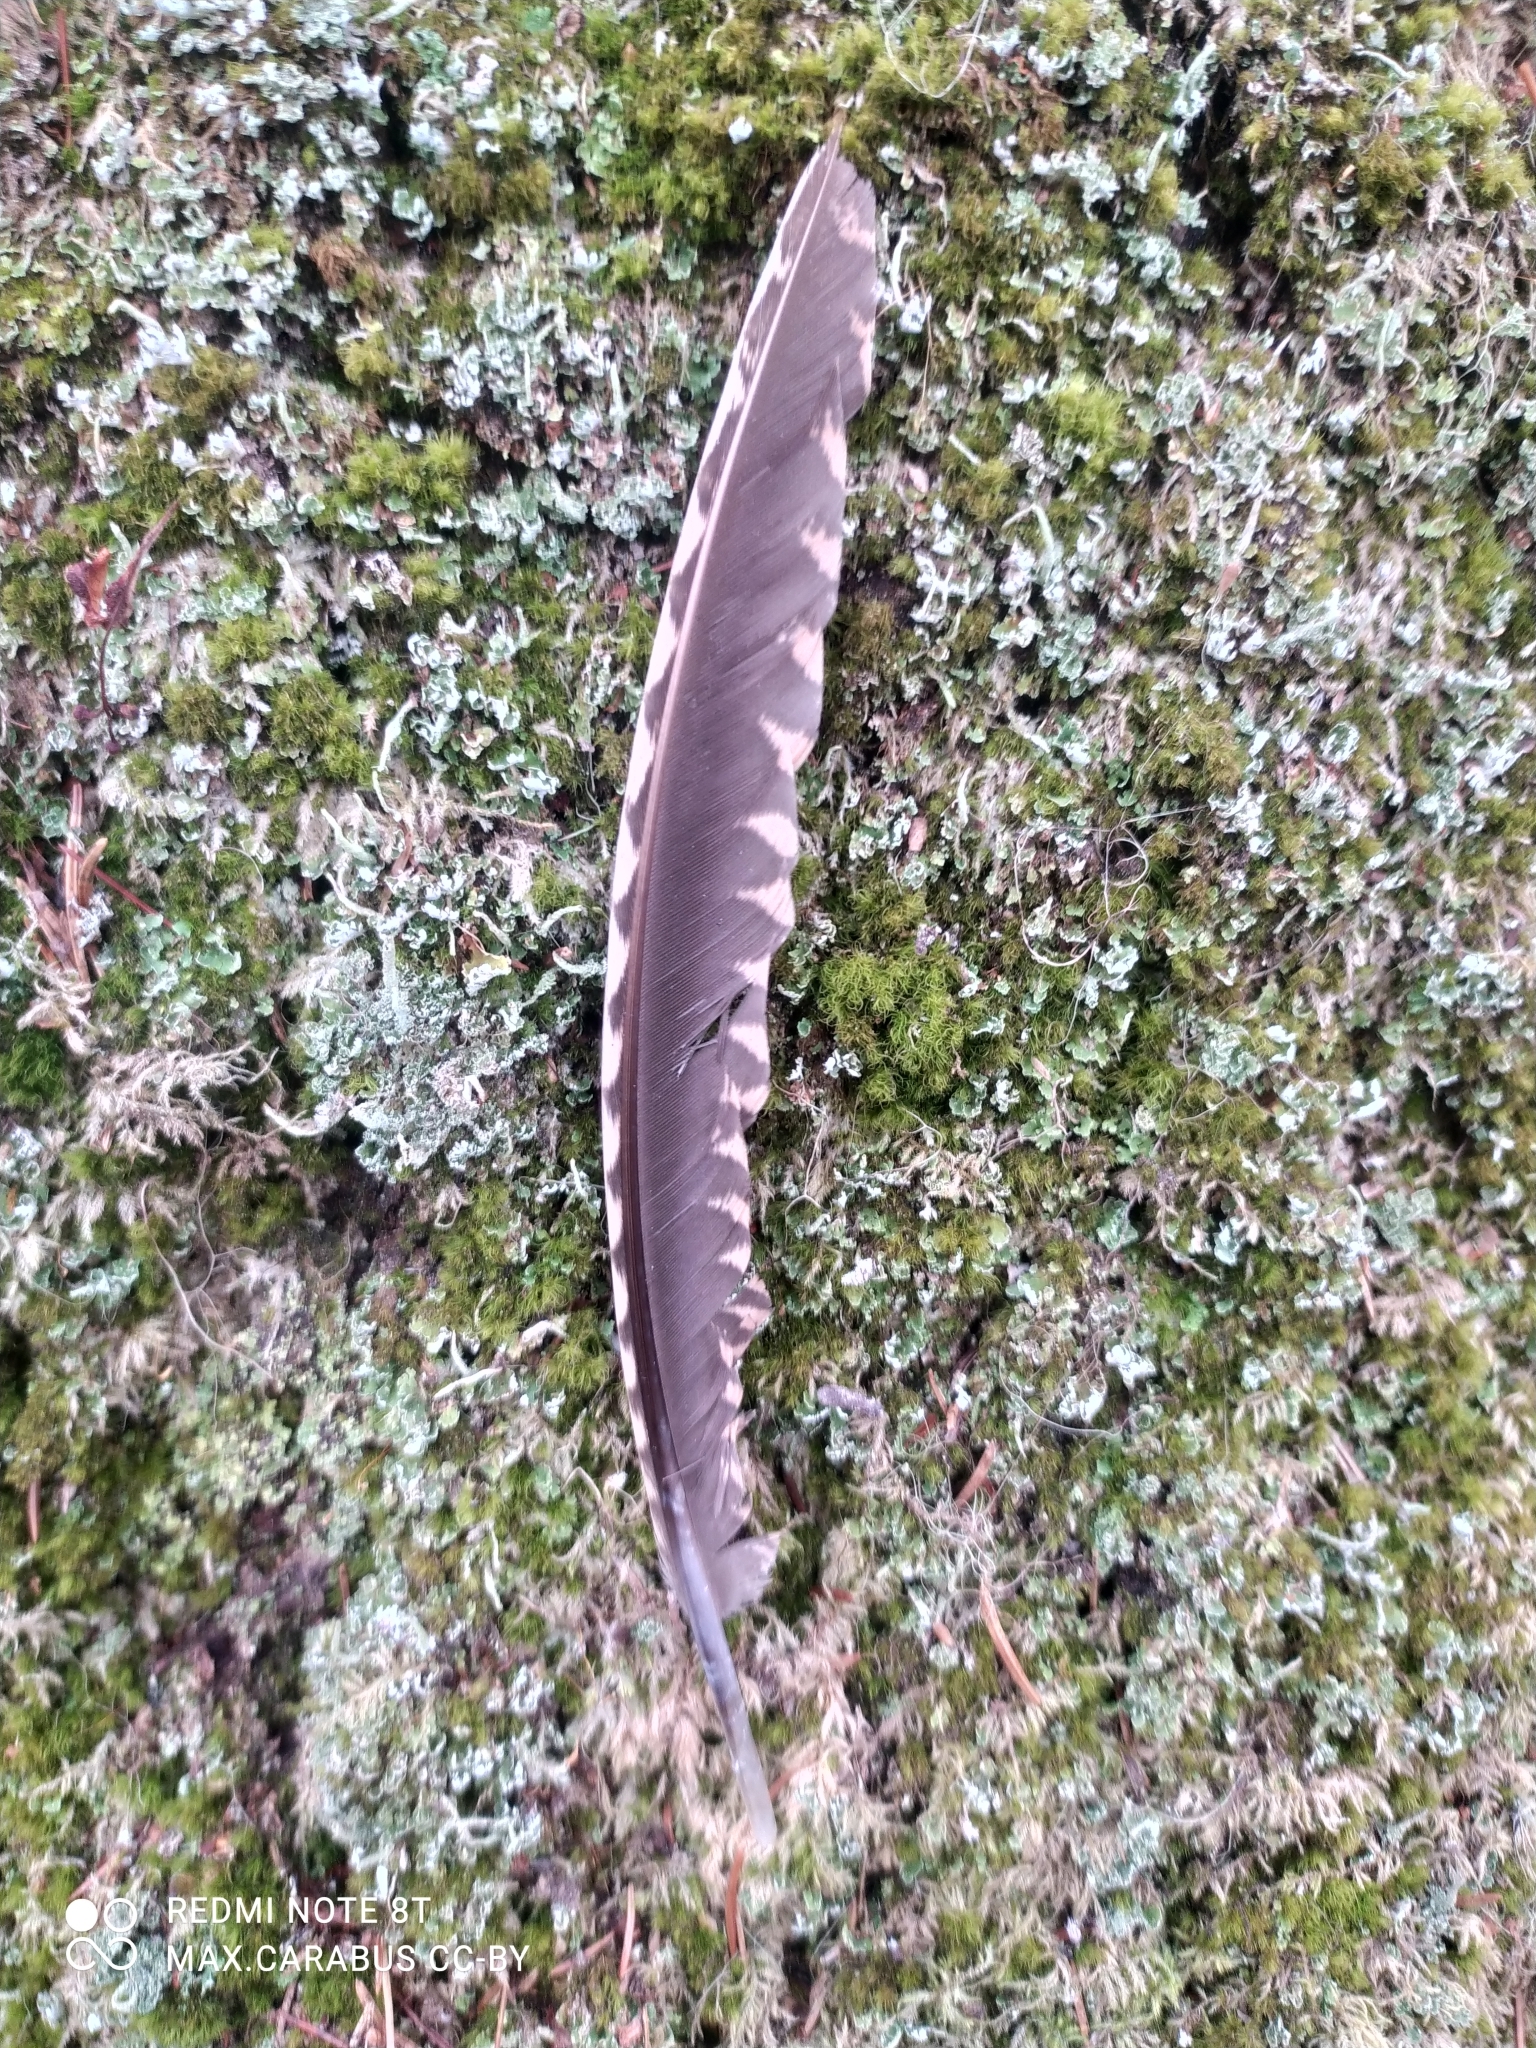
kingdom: Animalia
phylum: Chordata
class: Aves
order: Charadriiformes
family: Scolopacidae
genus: Scolopax
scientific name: Scolopax rusticola
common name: Eurasian woodcock
